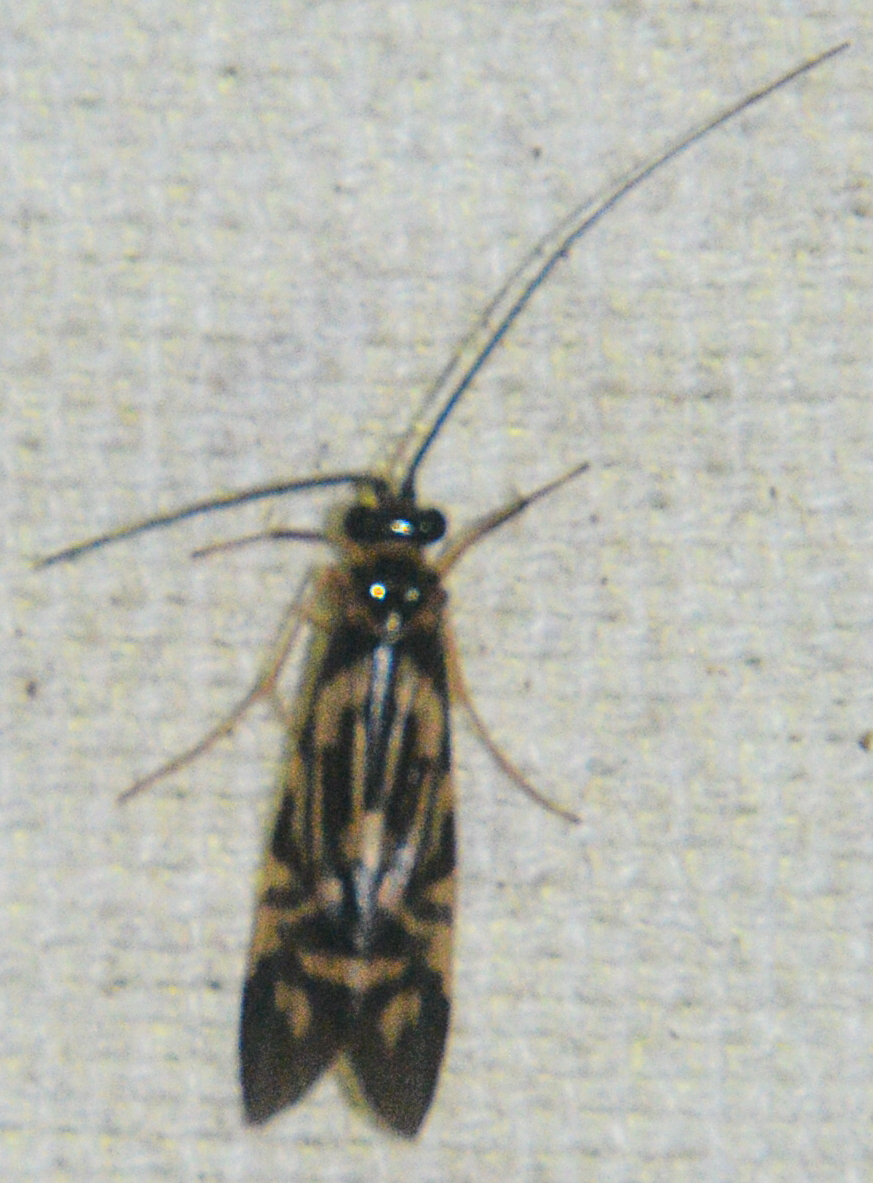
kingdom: Animalia
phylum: Arthropoda
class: Insecta
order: Trichoptera
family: Hydropsychidae
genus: Macrostemum
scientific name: Macrostemum carolina
